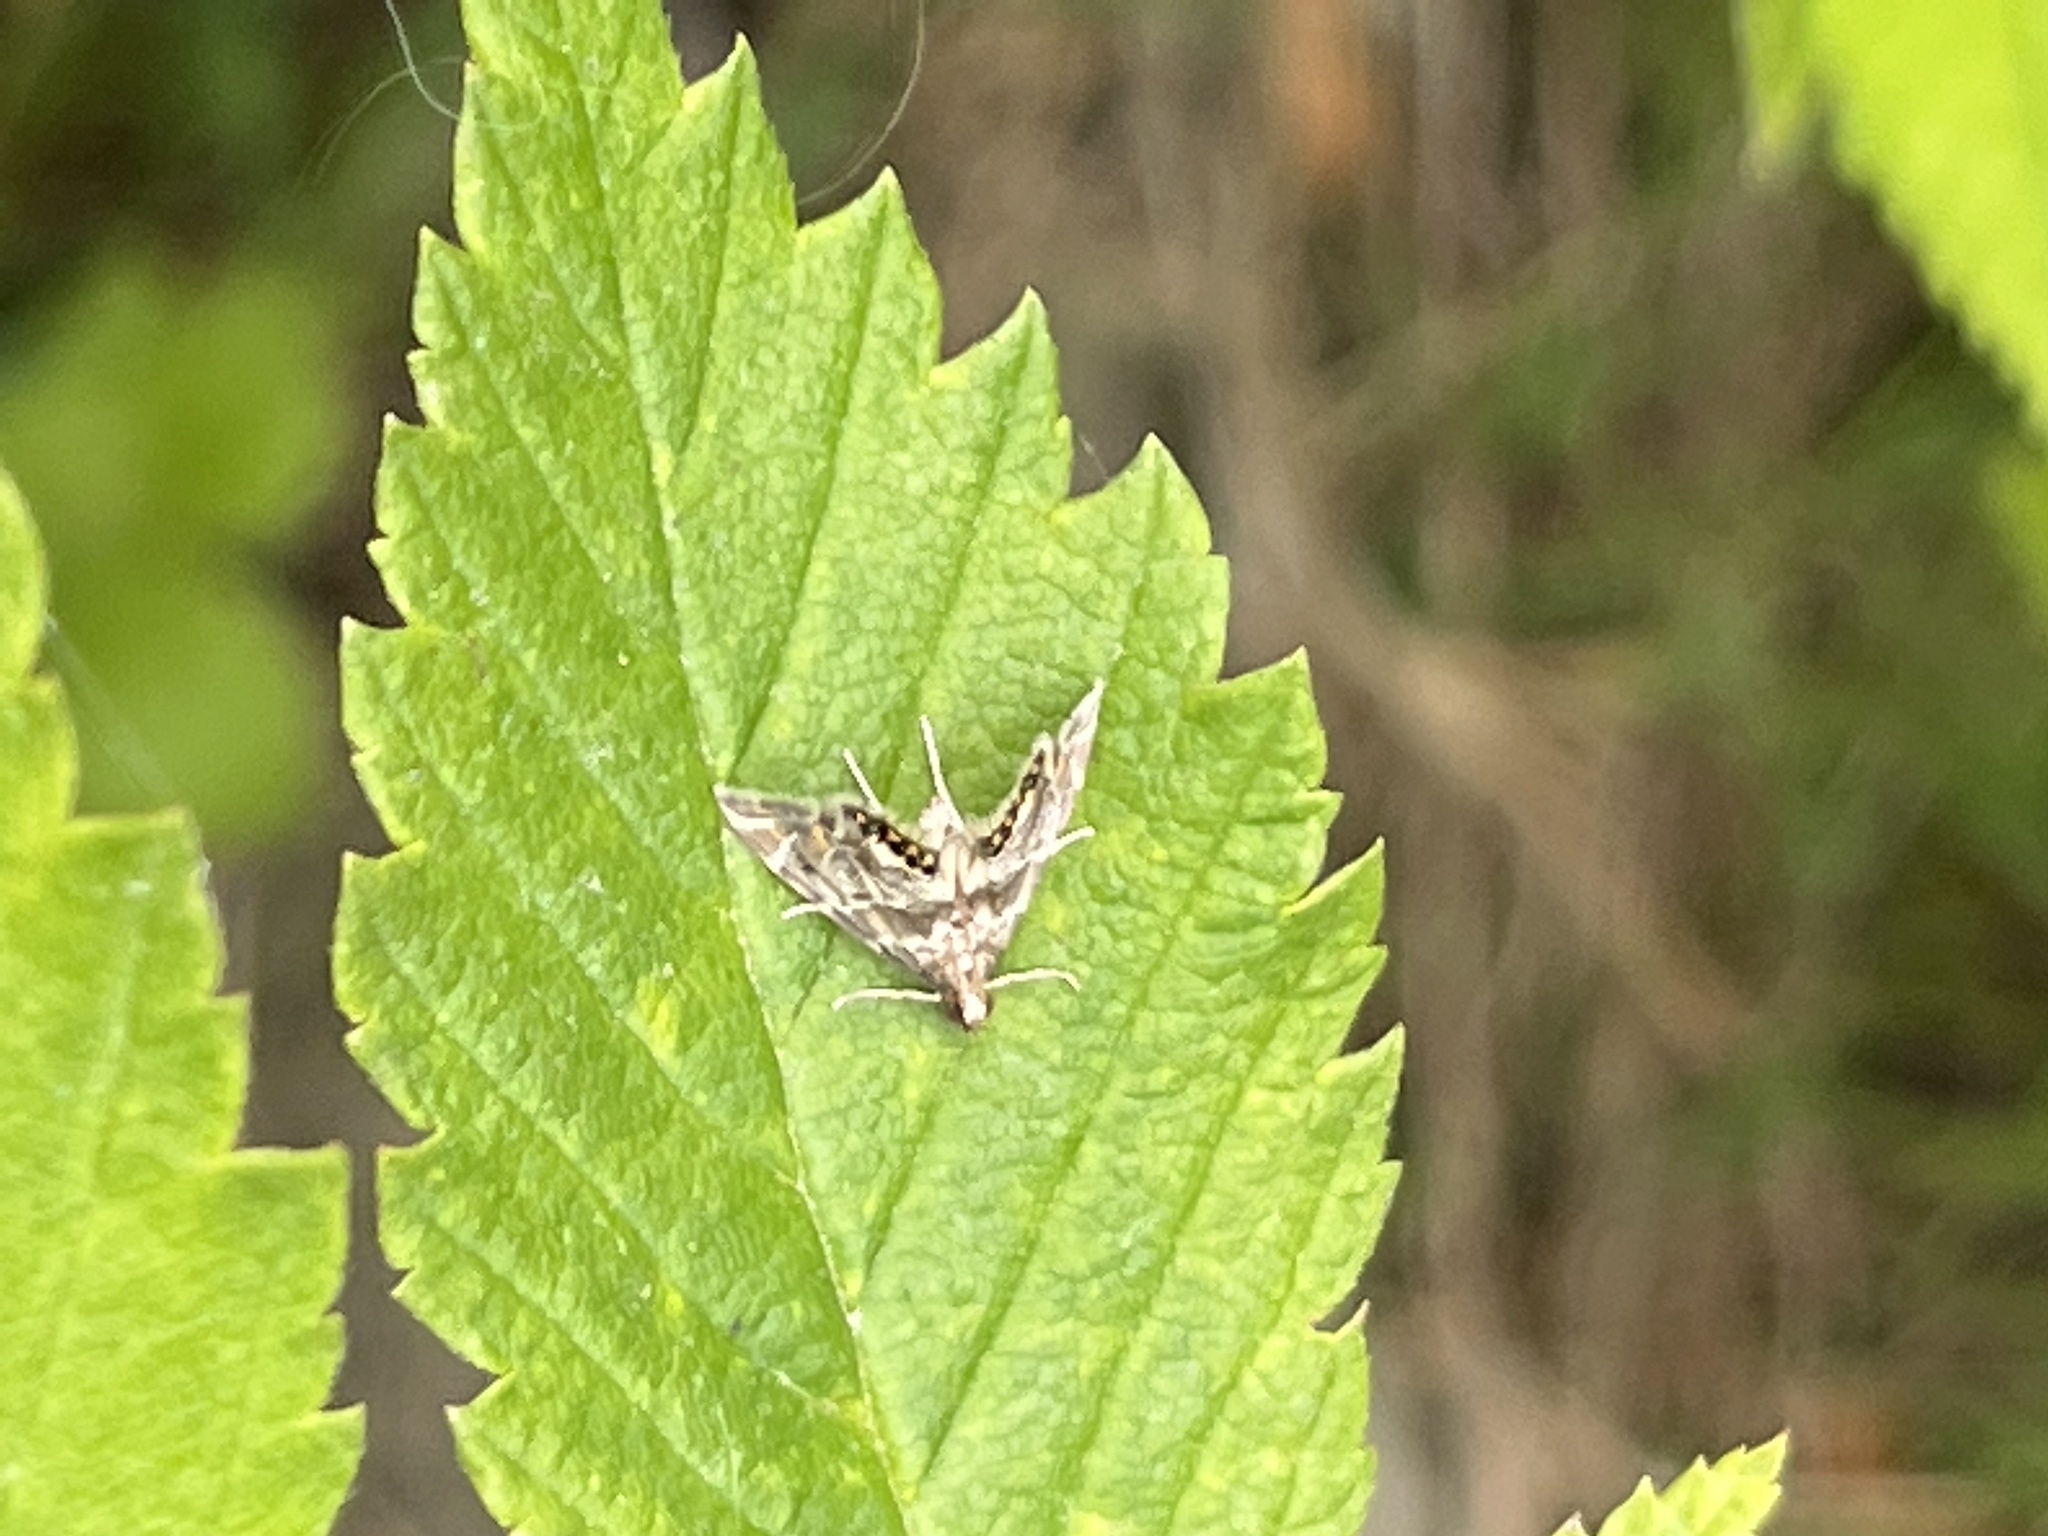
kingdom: Animalia
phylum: Arthropoda
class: Insecta
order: Lepidoptera
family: Crambidae
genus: Petrophila
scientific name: Petrophila fulicalis
